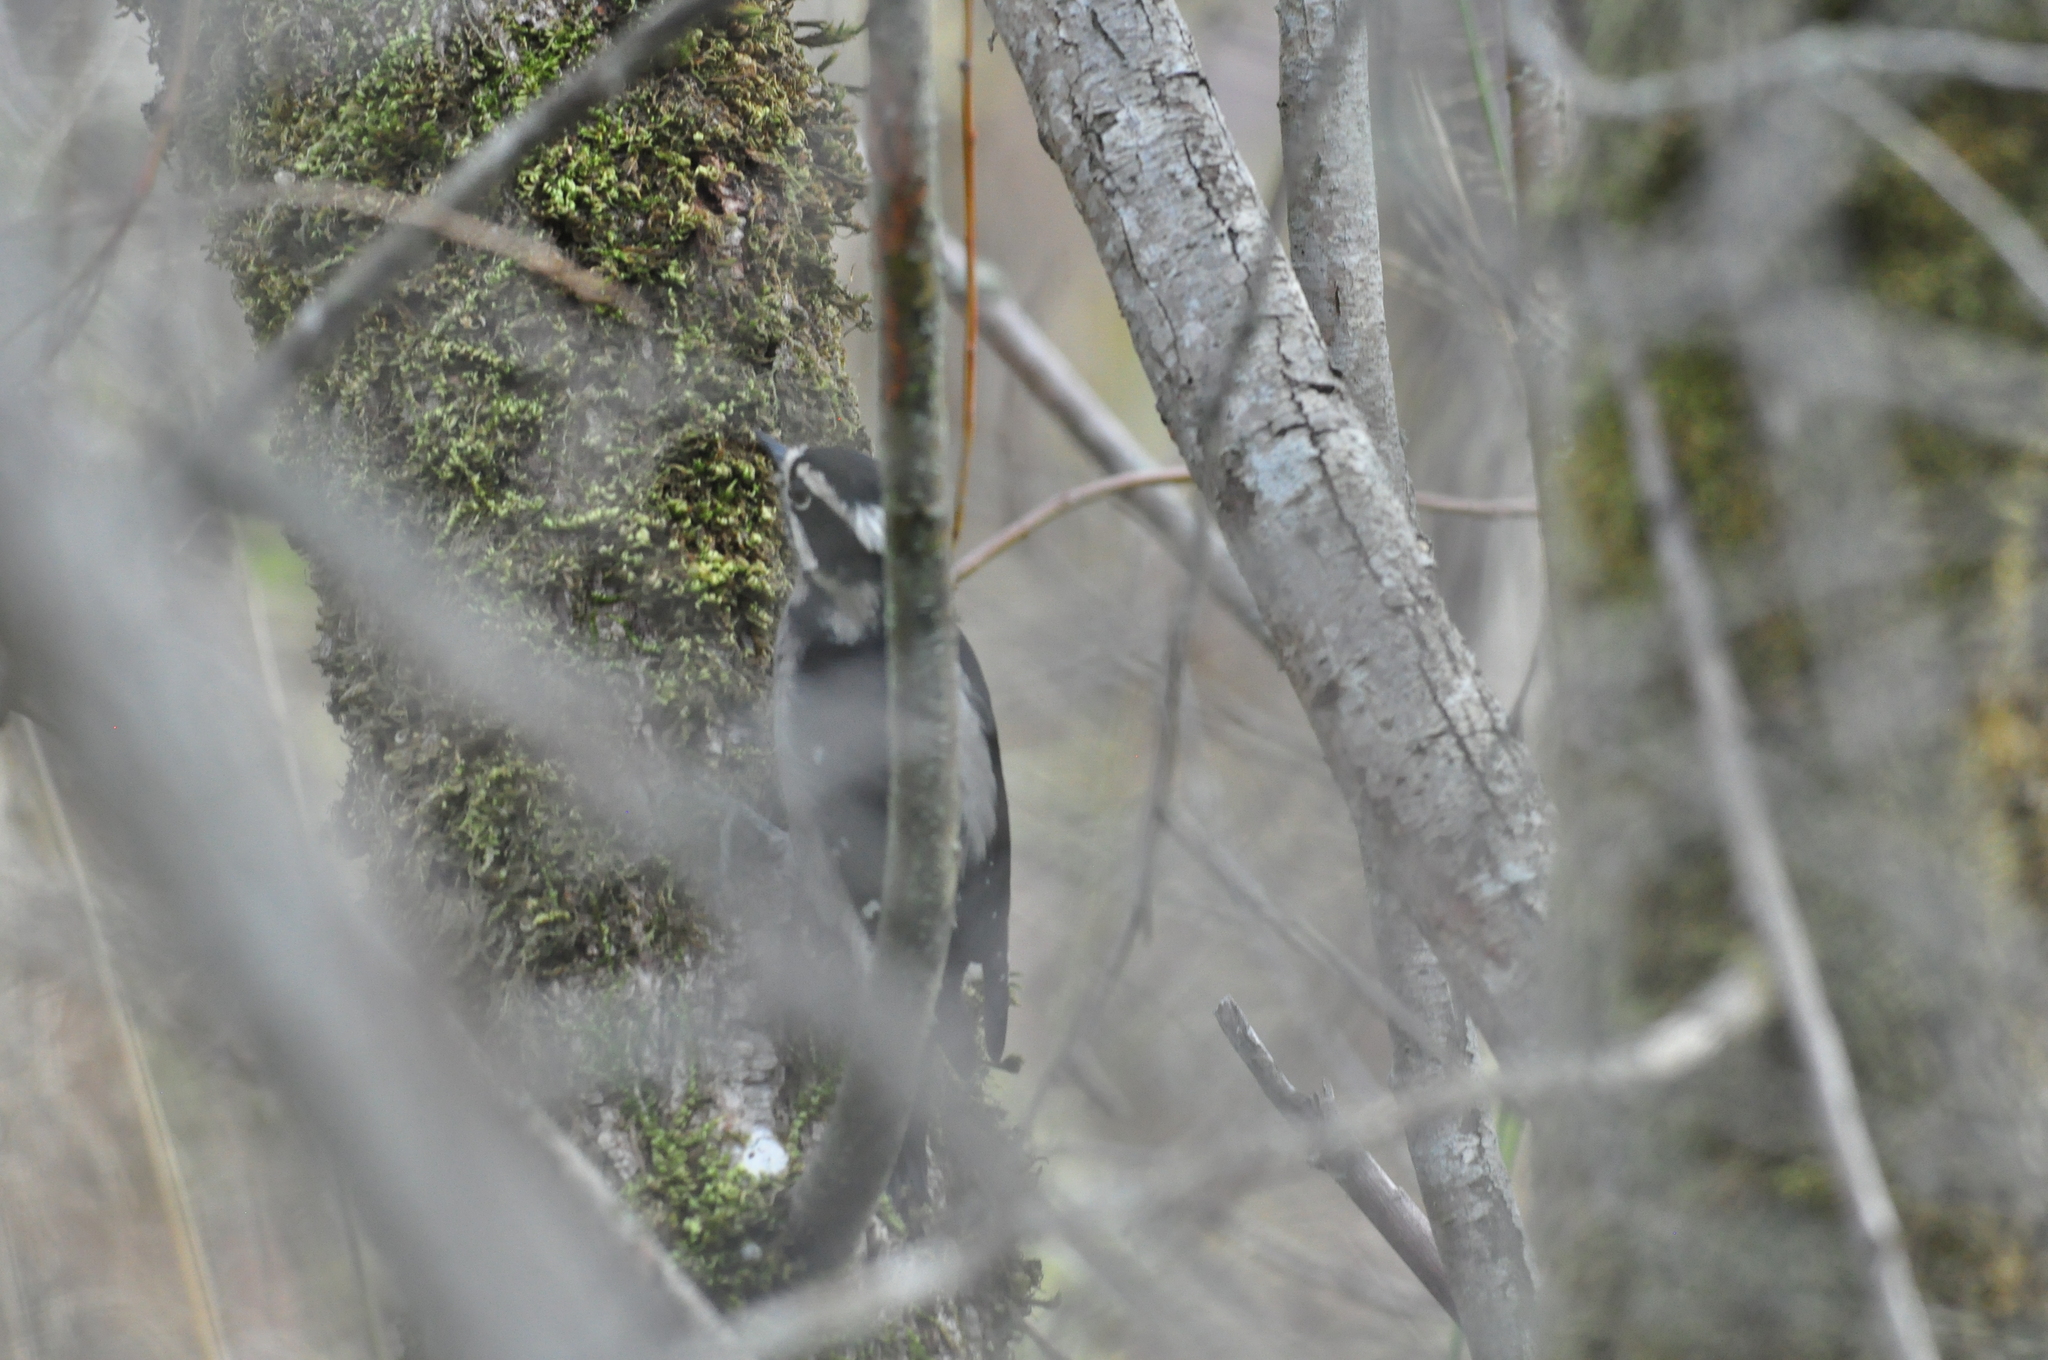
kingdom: Animalia
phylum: Chordata
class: Aves
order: Piciformes
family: Picidae
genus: Leuconotopicus
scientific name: Leuconotopicus villosus
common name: Hairy woodpecker
